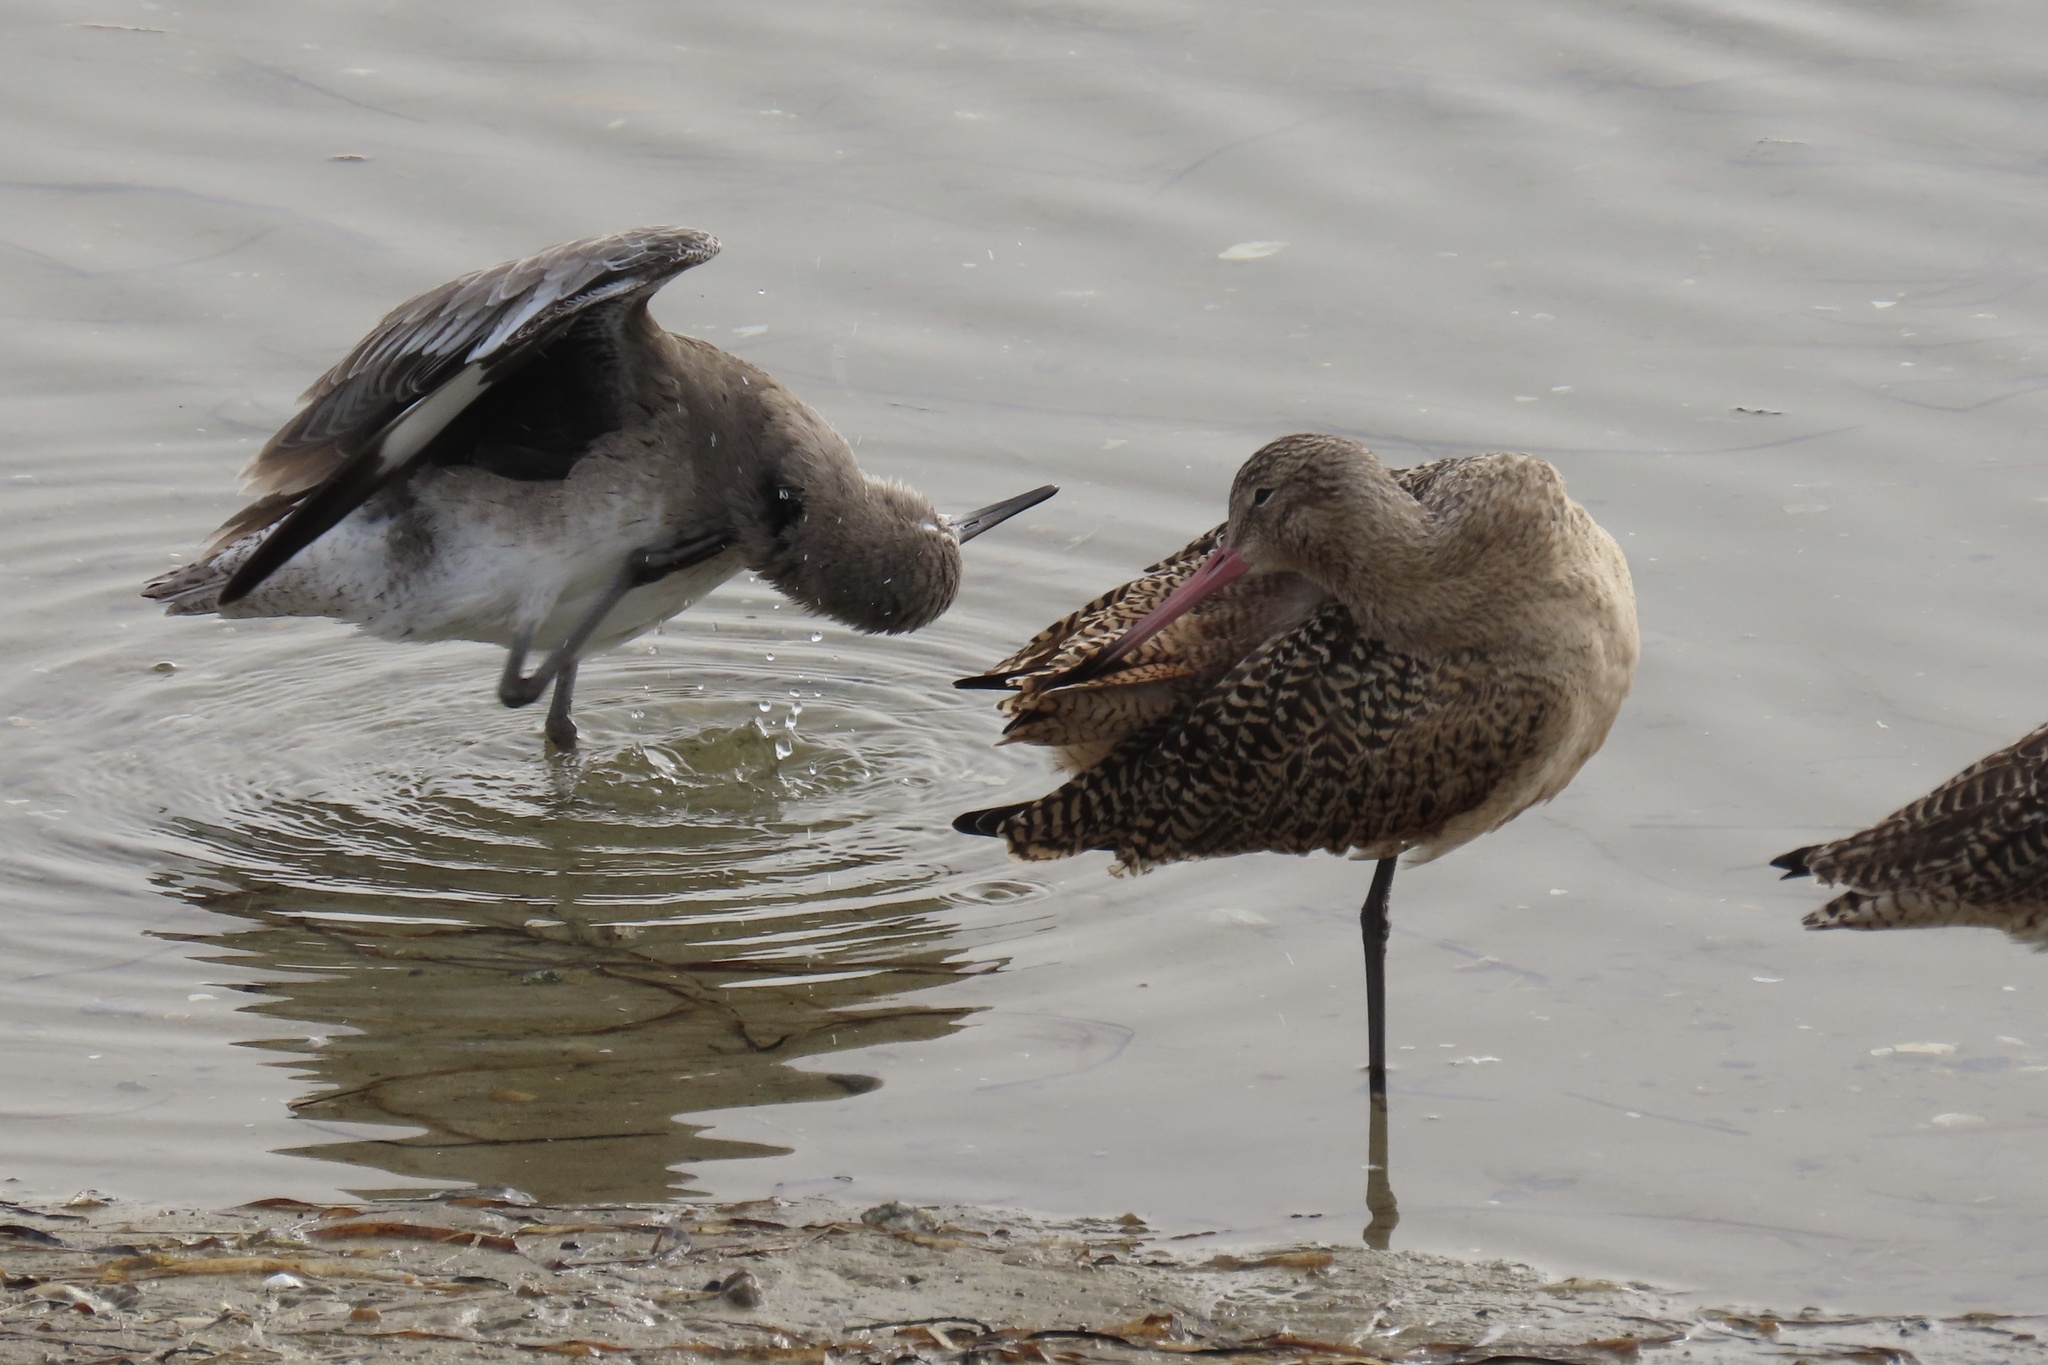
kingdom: Animalia
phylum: Chordata
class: Aves
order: Charadriiformes
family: Scolopacidae
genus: Tringa
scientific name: Tringa semipalmata
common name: Willet
